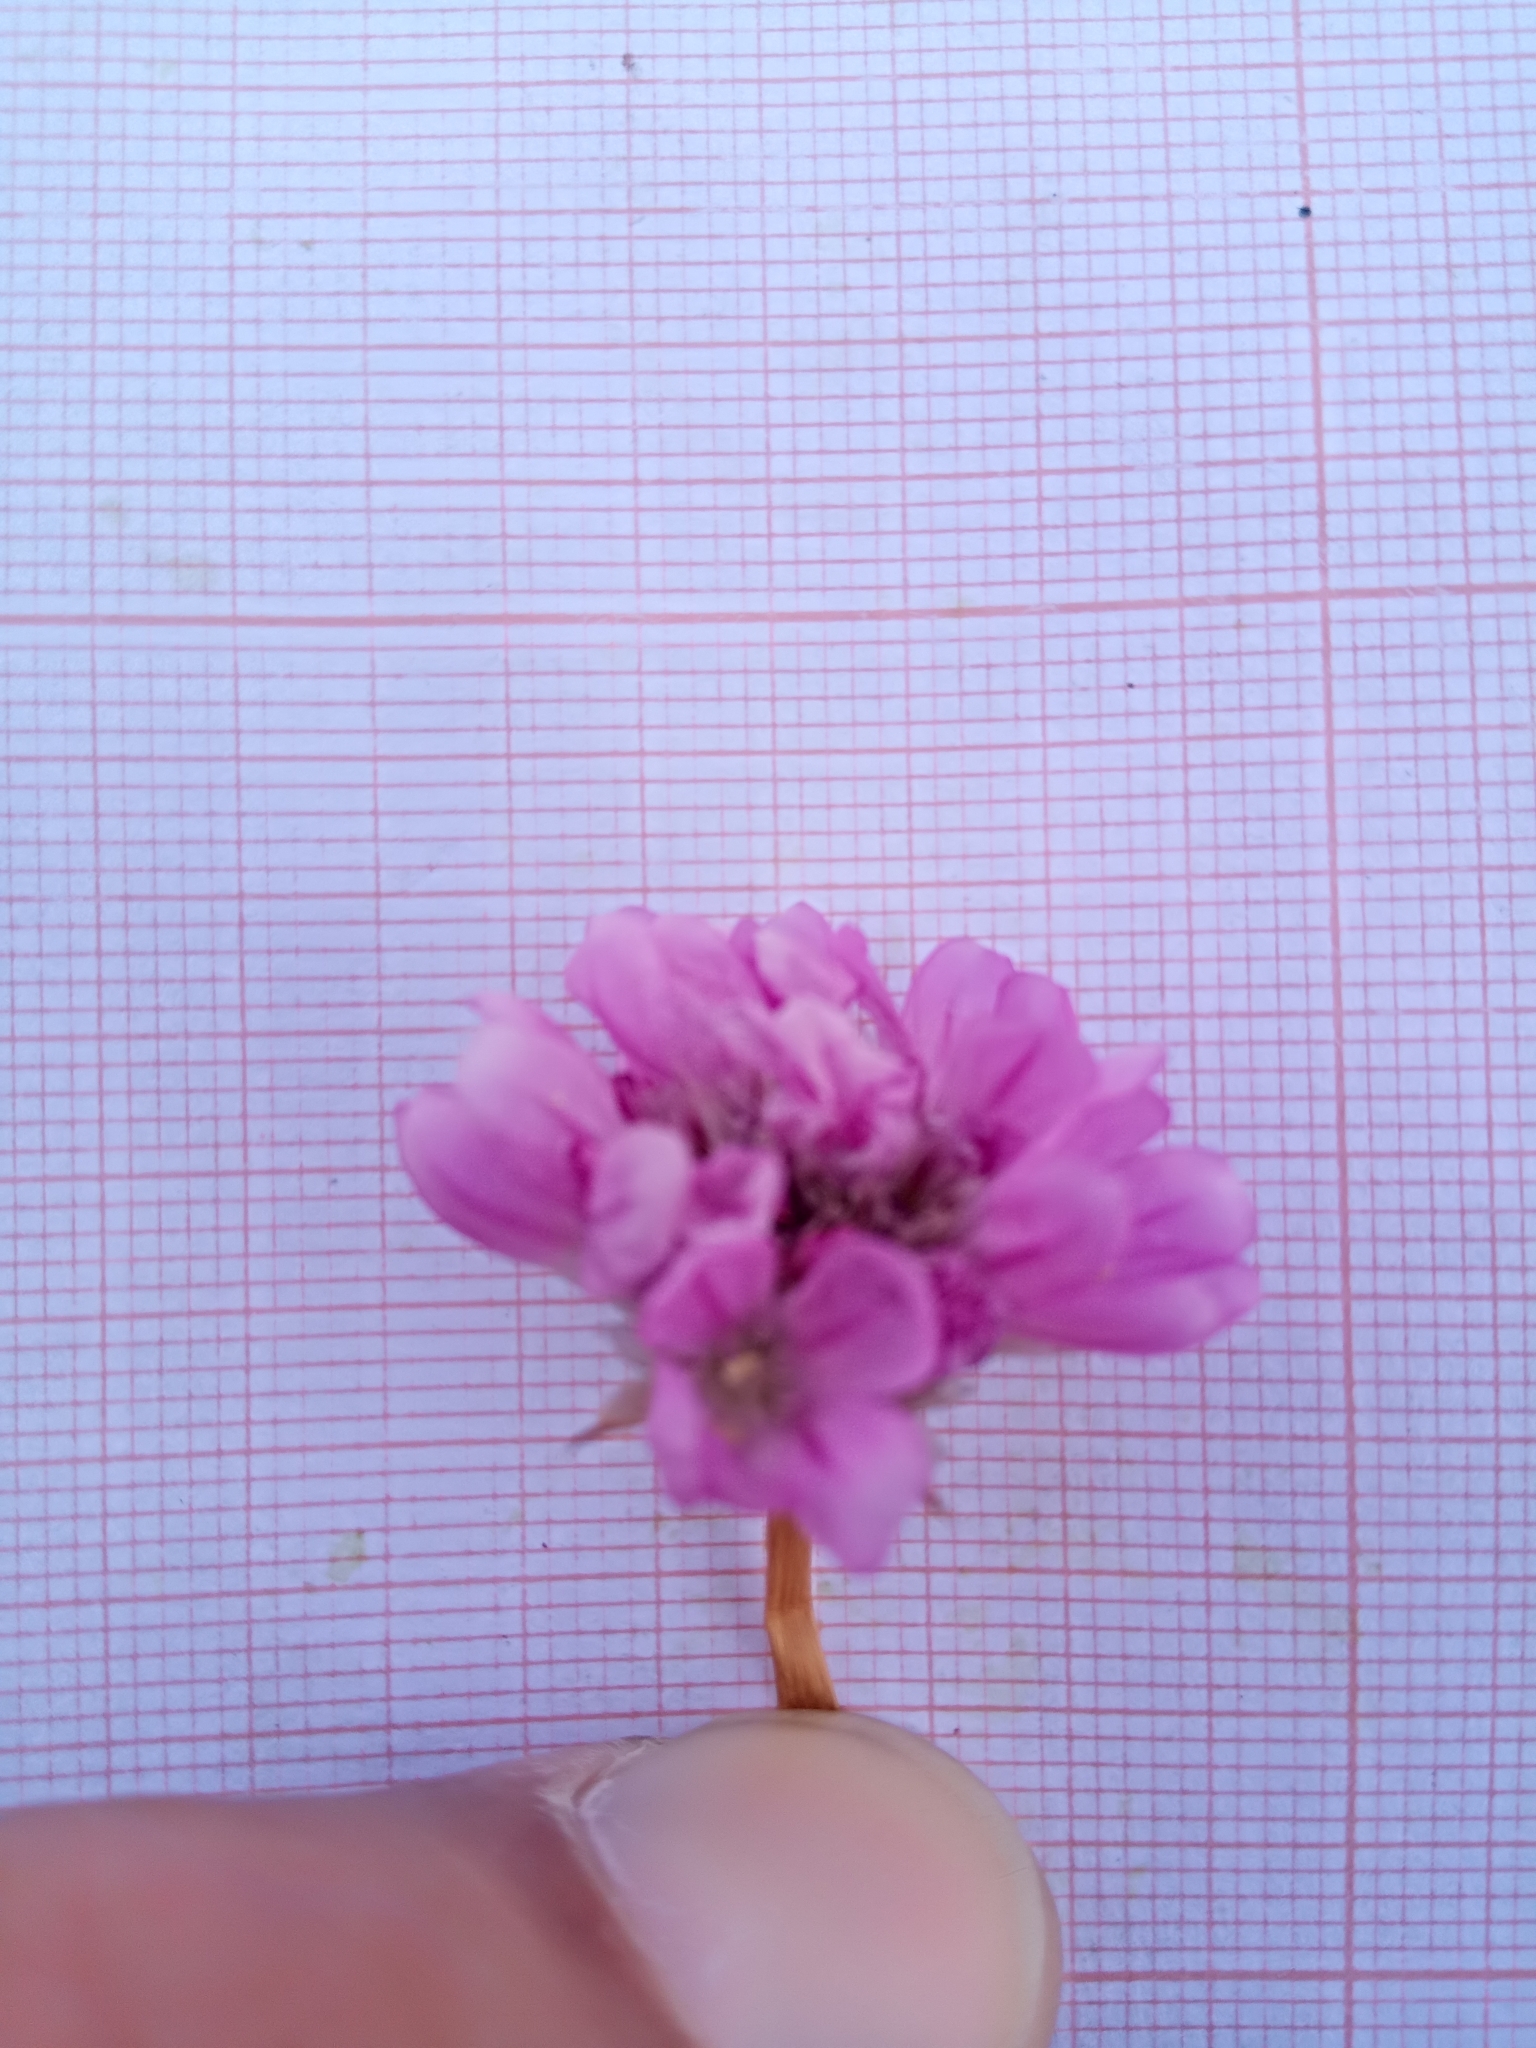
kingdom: Plantae
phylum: Tracheophyta
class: Magnoliopsida
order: Caryophyllales
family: Plumbaginaceae
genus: Armeria
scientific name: Armeria choulettiana
